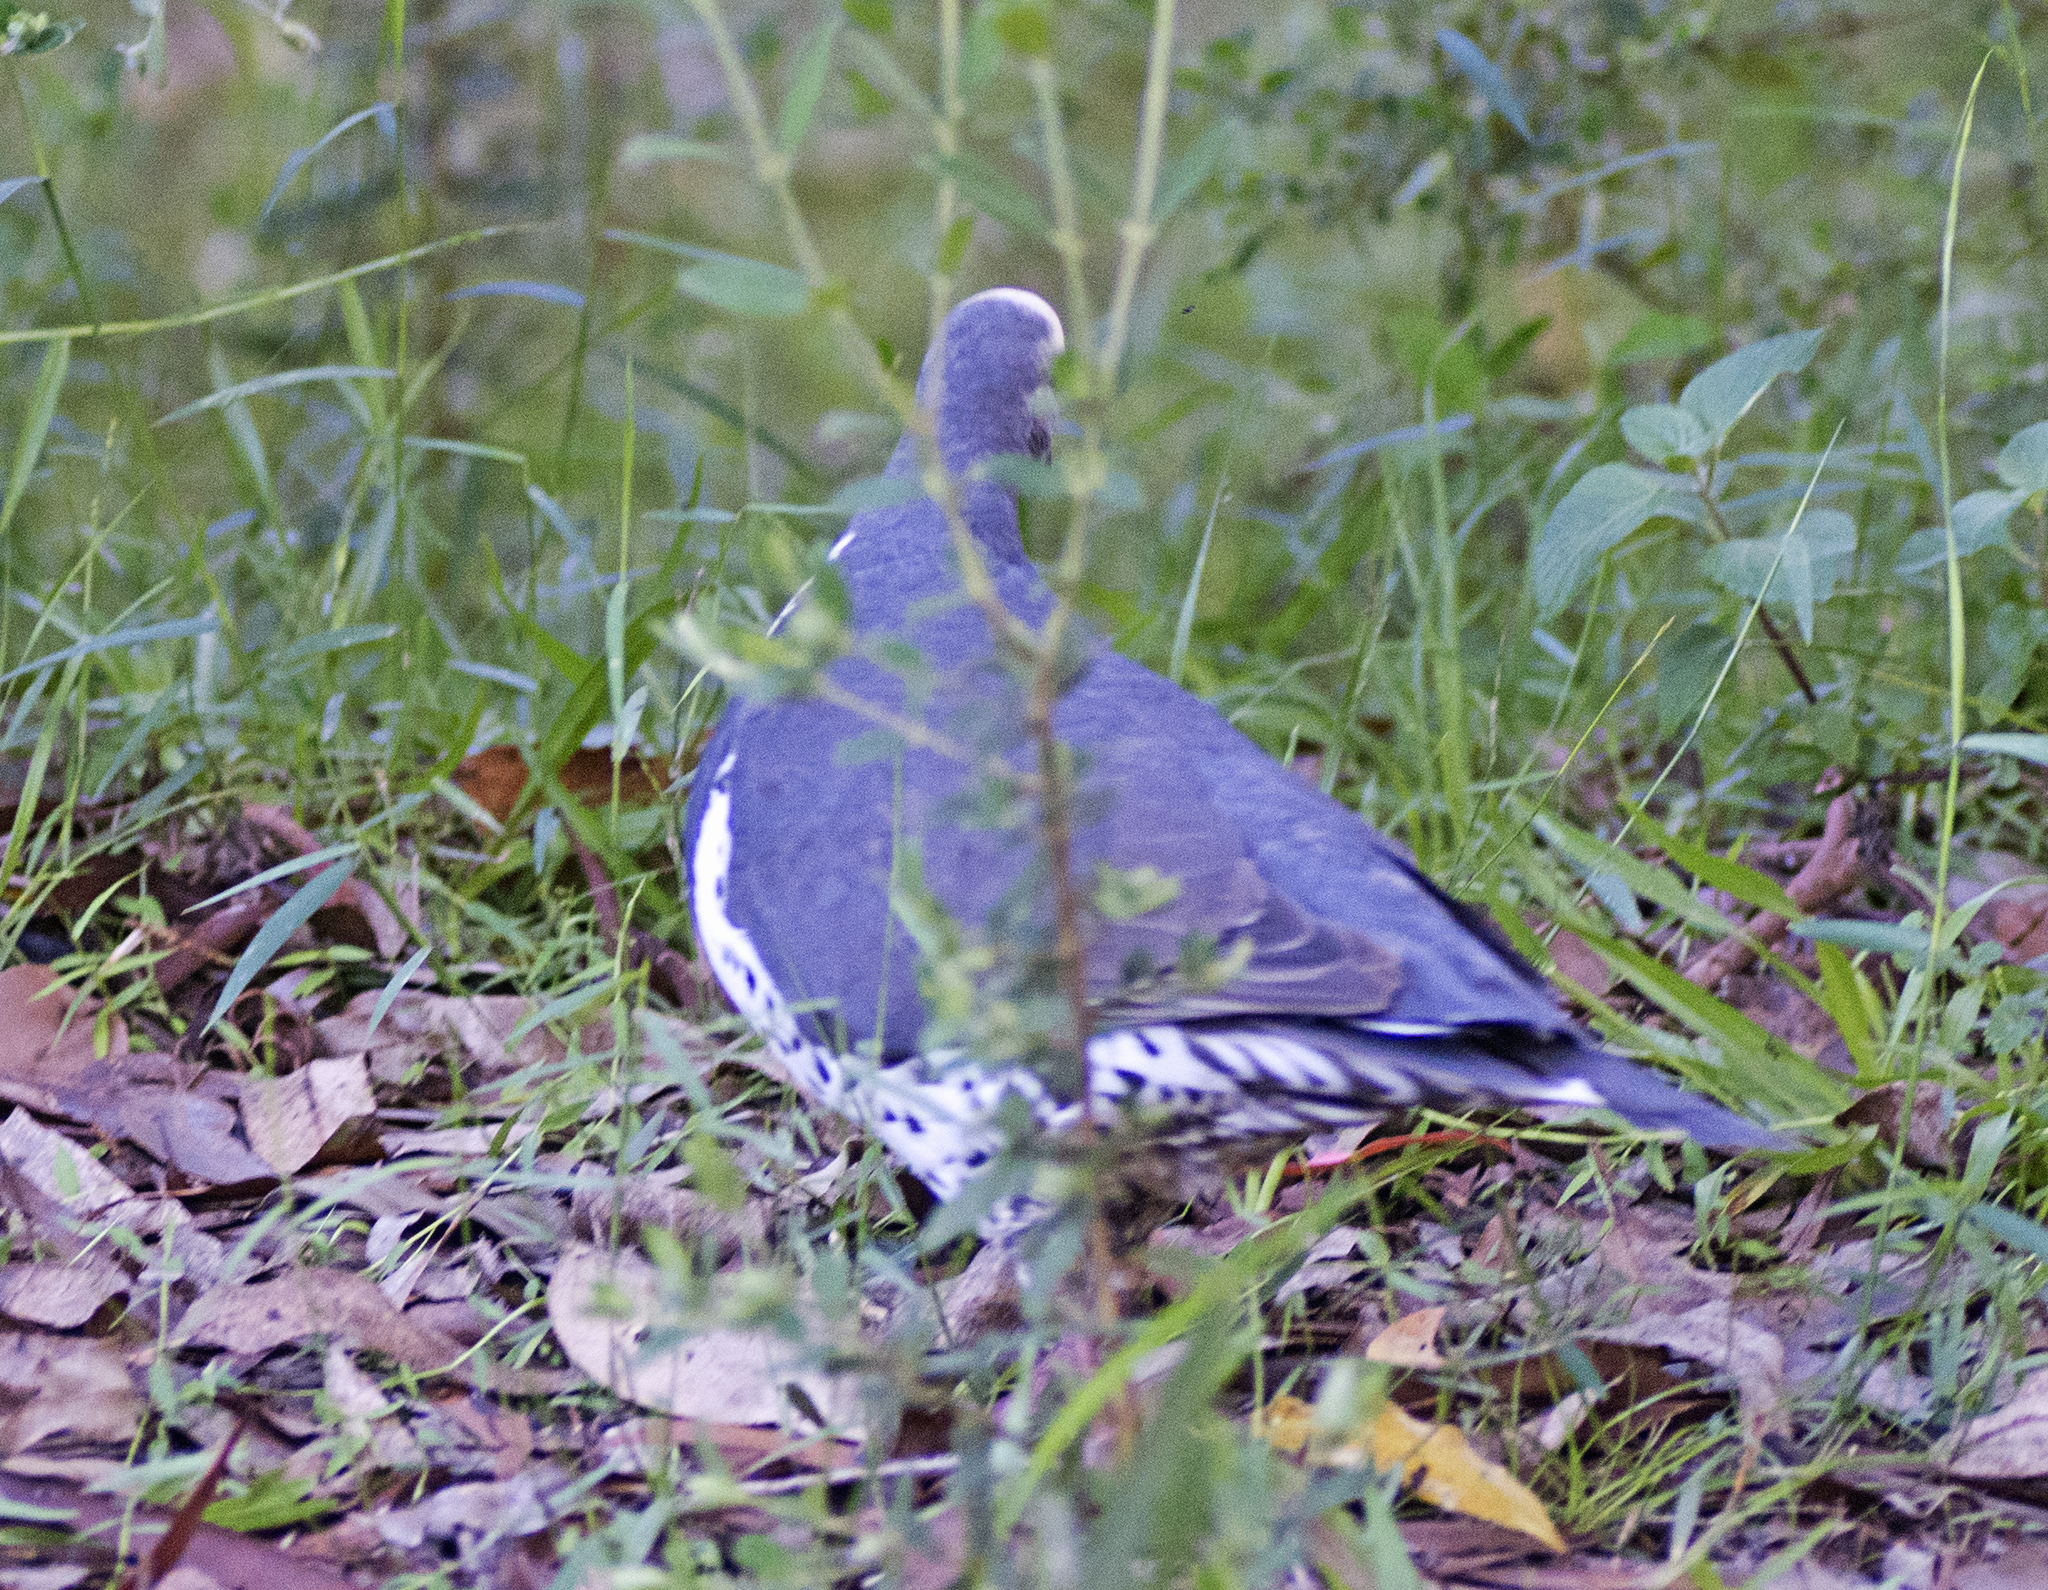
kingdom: Animalia
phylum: Chordata
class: Aves
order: Columbiformes
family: Columbidae
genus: Leucosarcia
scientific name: Leucosarcia melanoleuca
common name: Wonga pigeon
